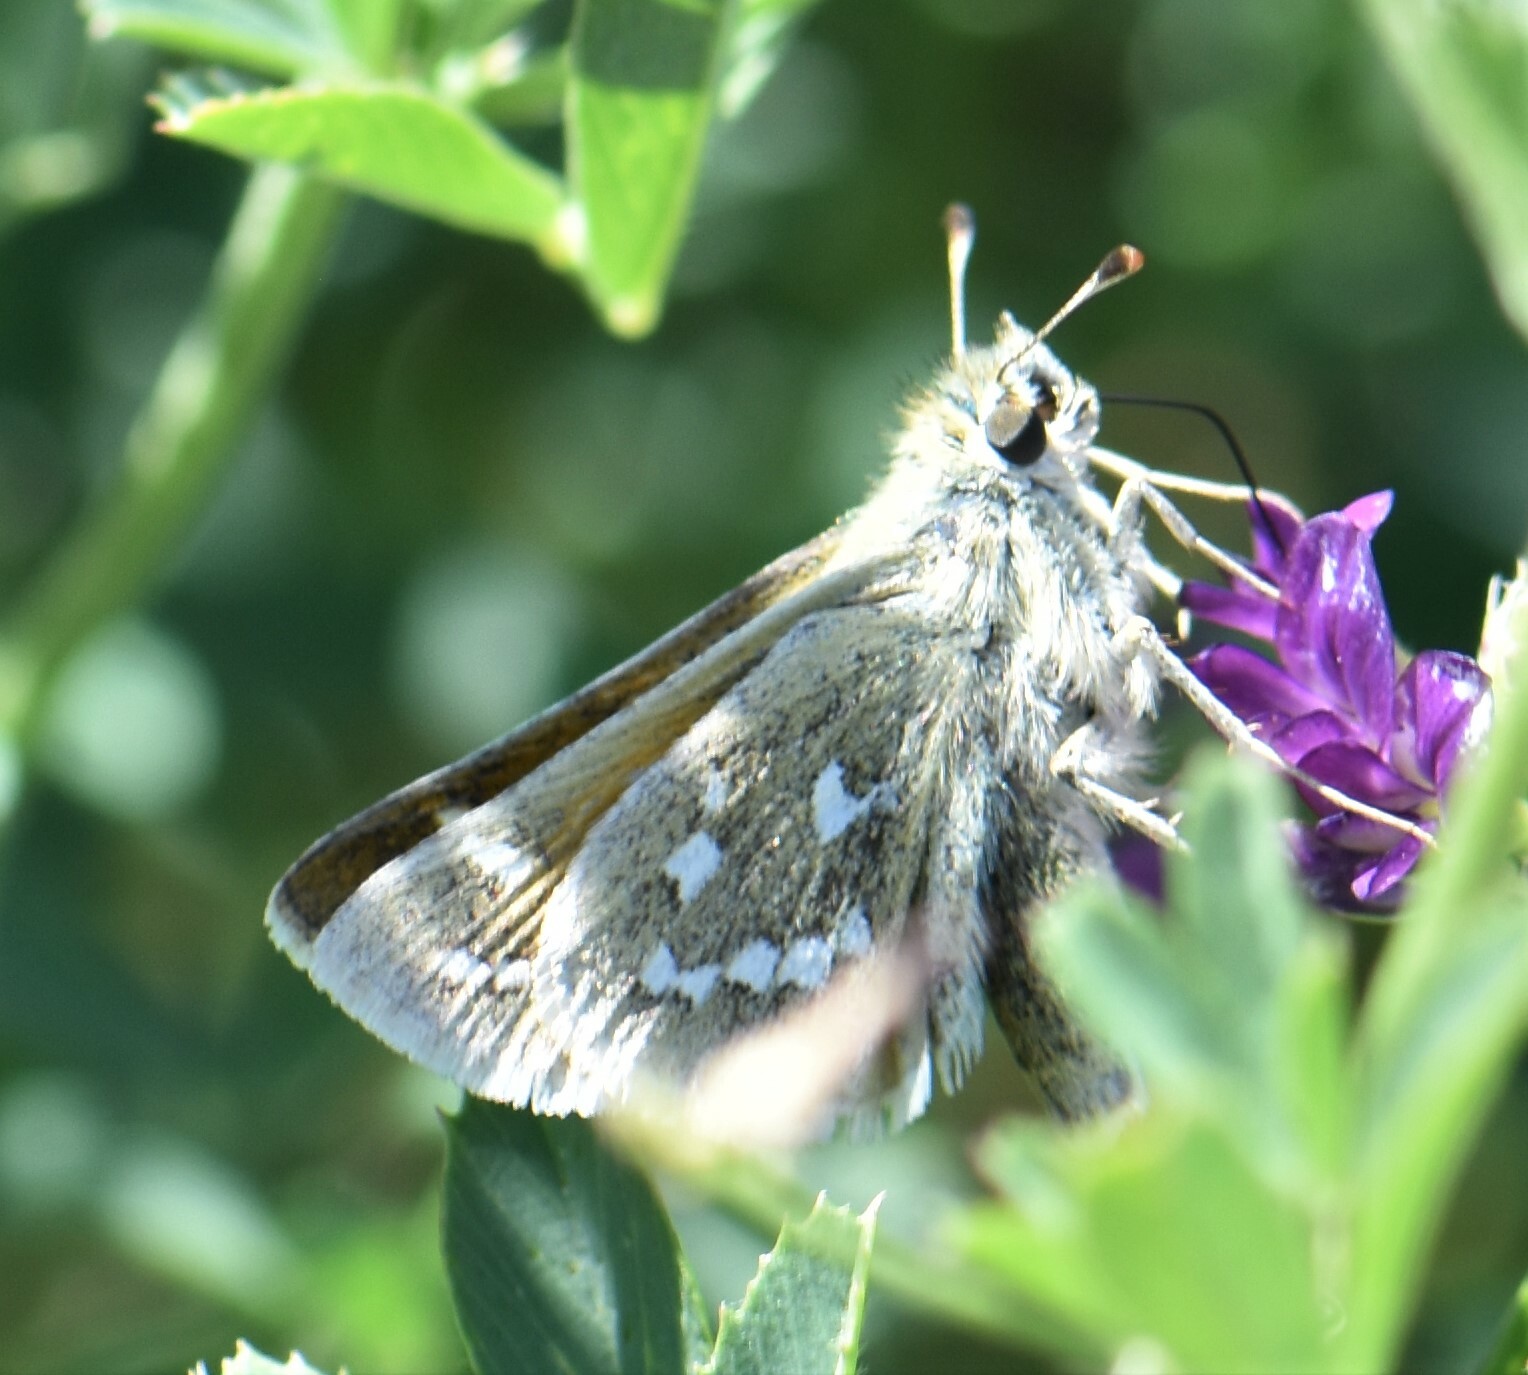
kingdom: Animalia
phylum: Arthropoda
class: Insecta
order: Lepidoptera
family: Hesperiidae
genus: Hesperia
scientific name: Hesperia comma
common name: Common branded skipper
